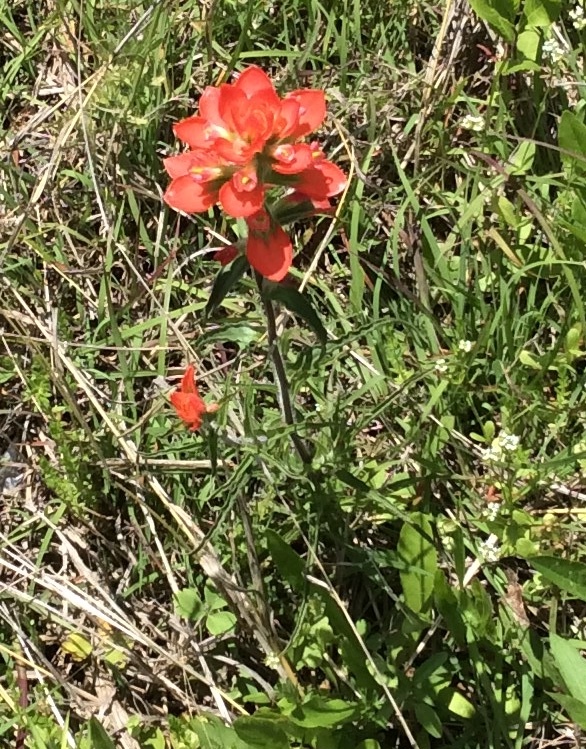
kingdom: Plantae
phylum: Tracheophyta
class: Magnoliopsida
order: Lamiales
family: Orobanchaceae
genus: Castilleja
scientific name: Castilleja indivisa
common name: Texas paintbrush
